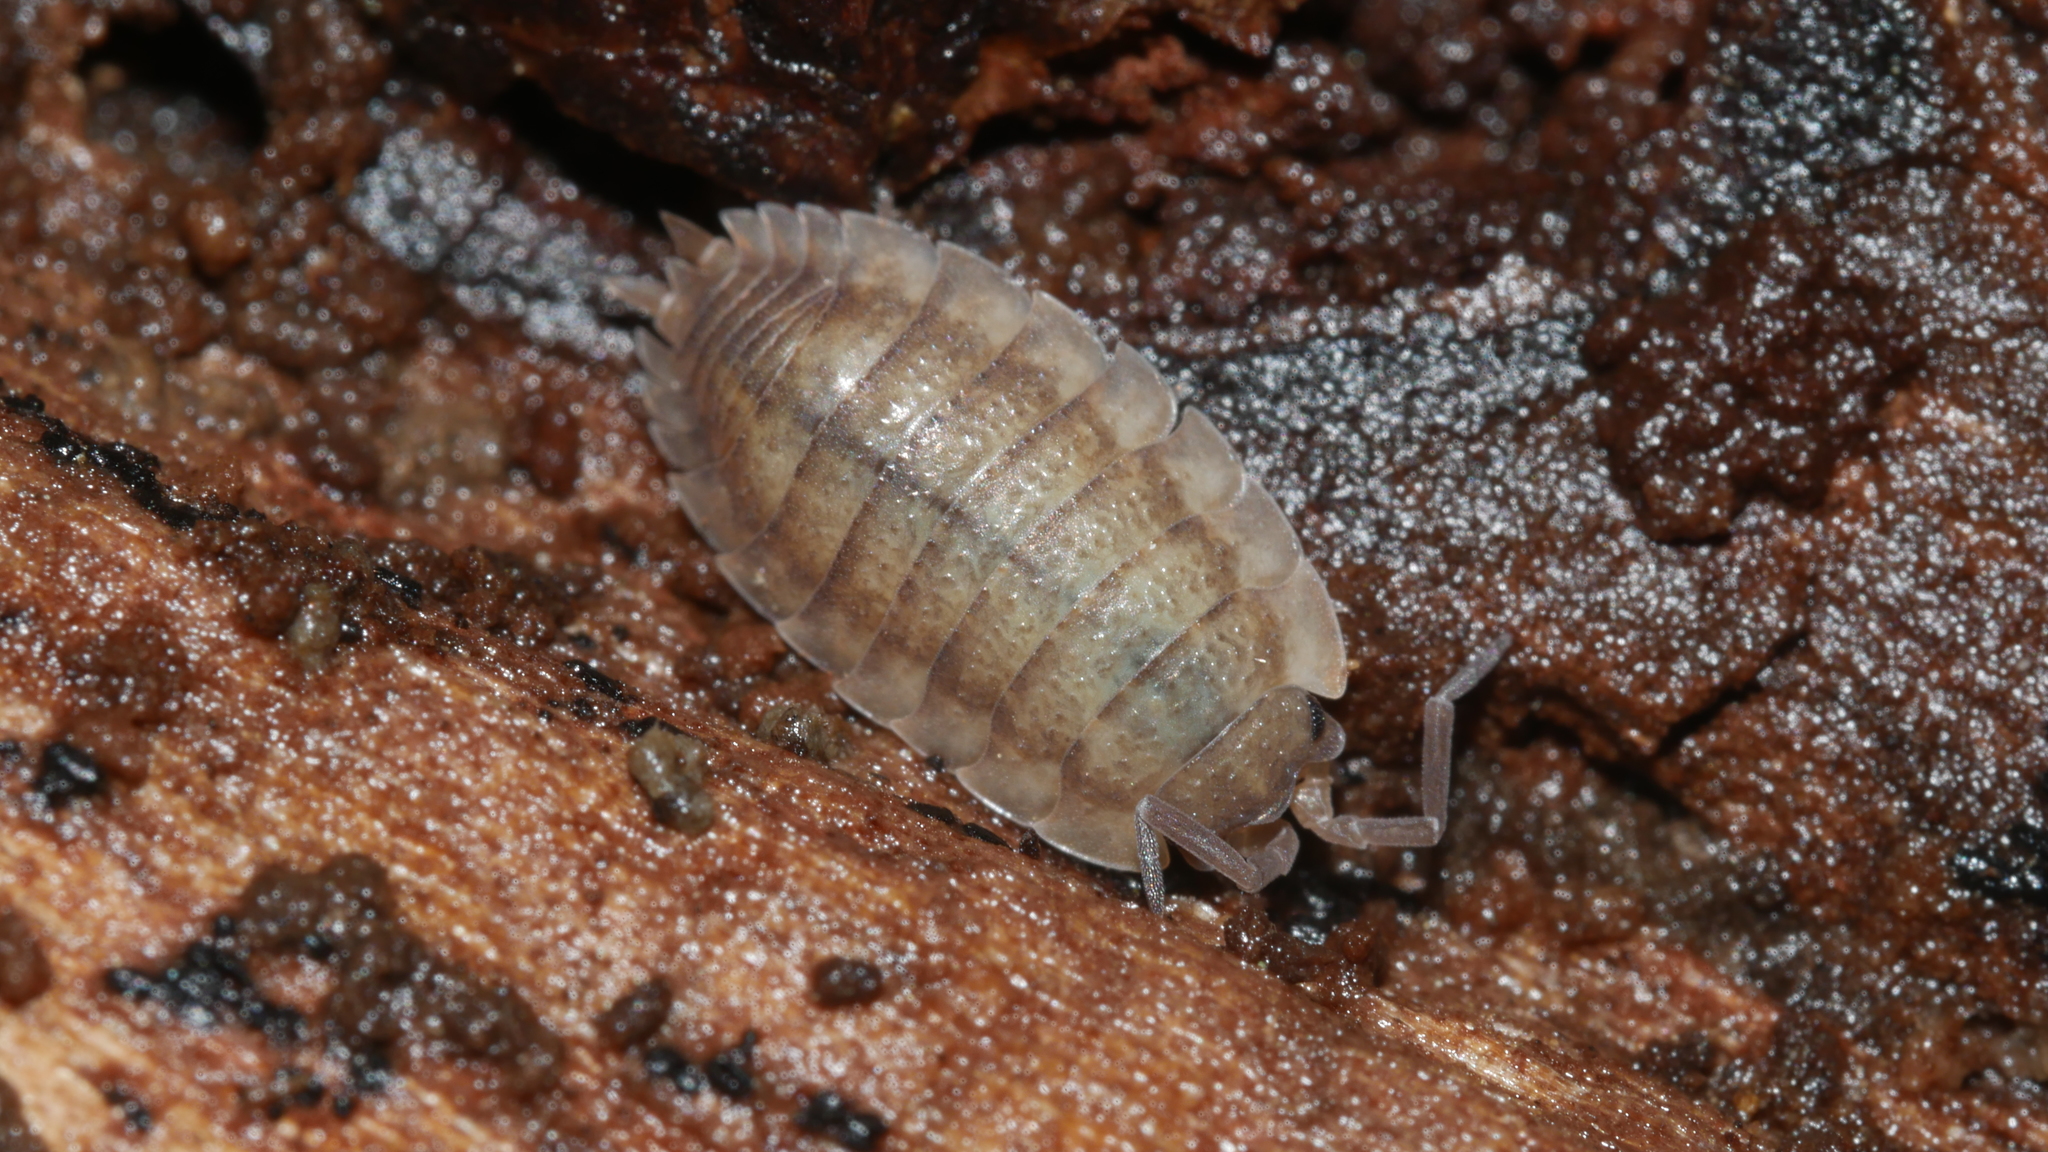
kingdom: Animalia
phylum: Arthropoda
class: Malacostraca
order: Isopoda
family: Porcellionidae
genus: Porcellio
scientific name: Porcellio scaber
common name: Common rough woodlouse
